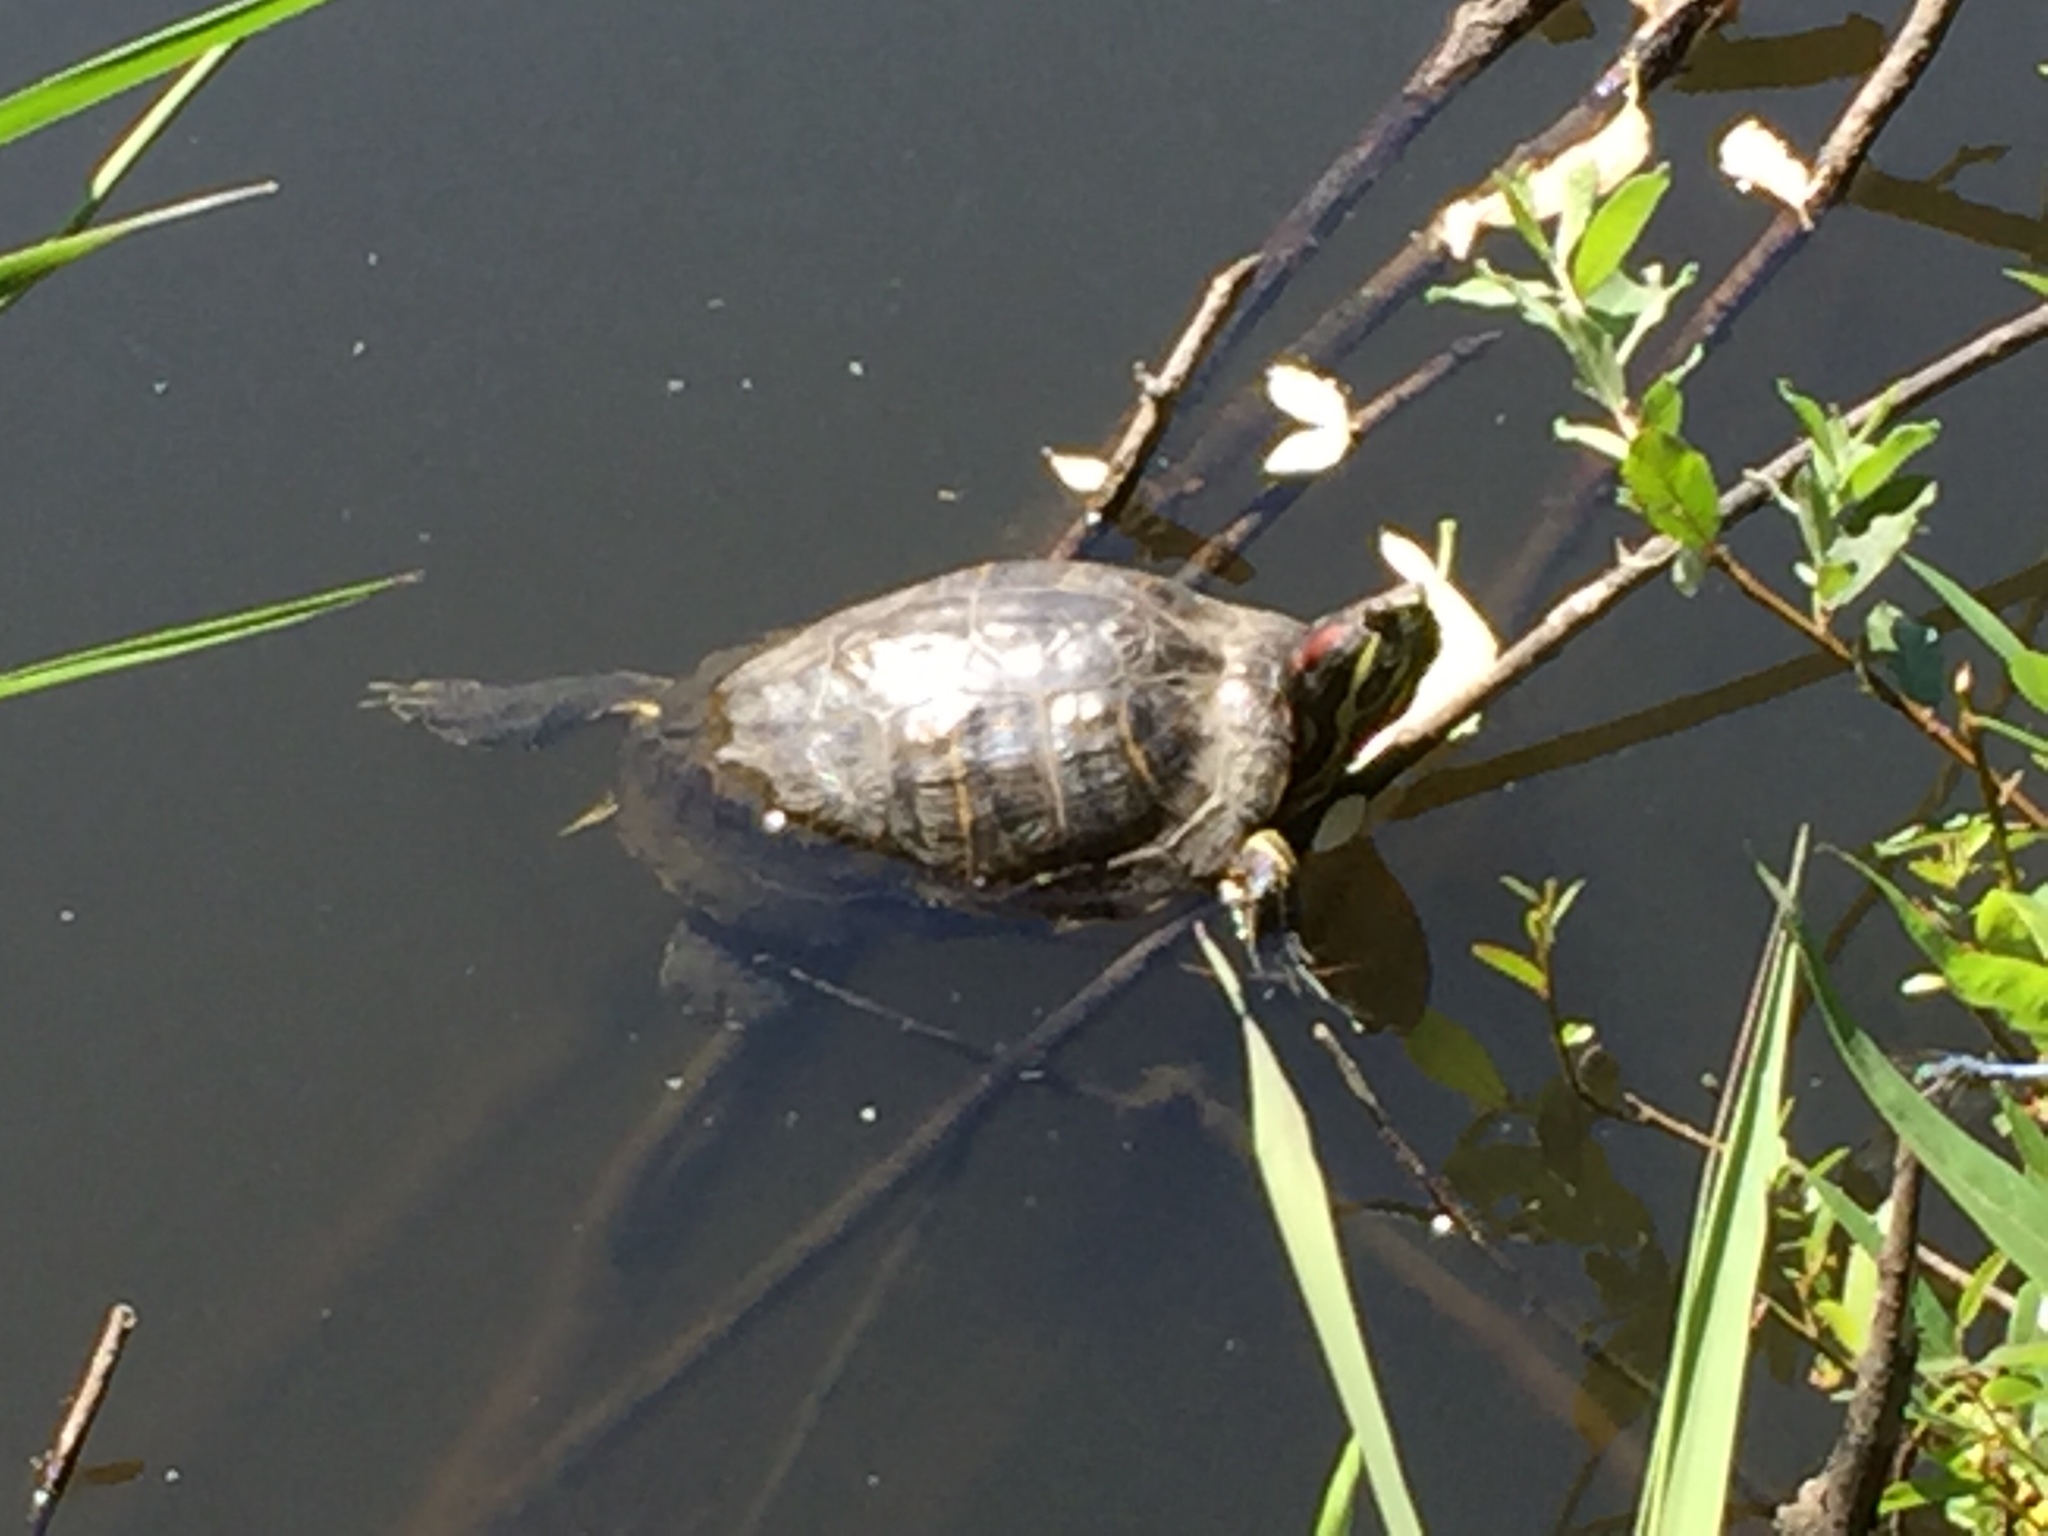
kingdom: Animalia
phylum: Chordata
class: Testudines
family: Emydidae
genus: Trachemys
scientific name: Trachemys scripta
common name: Slider
